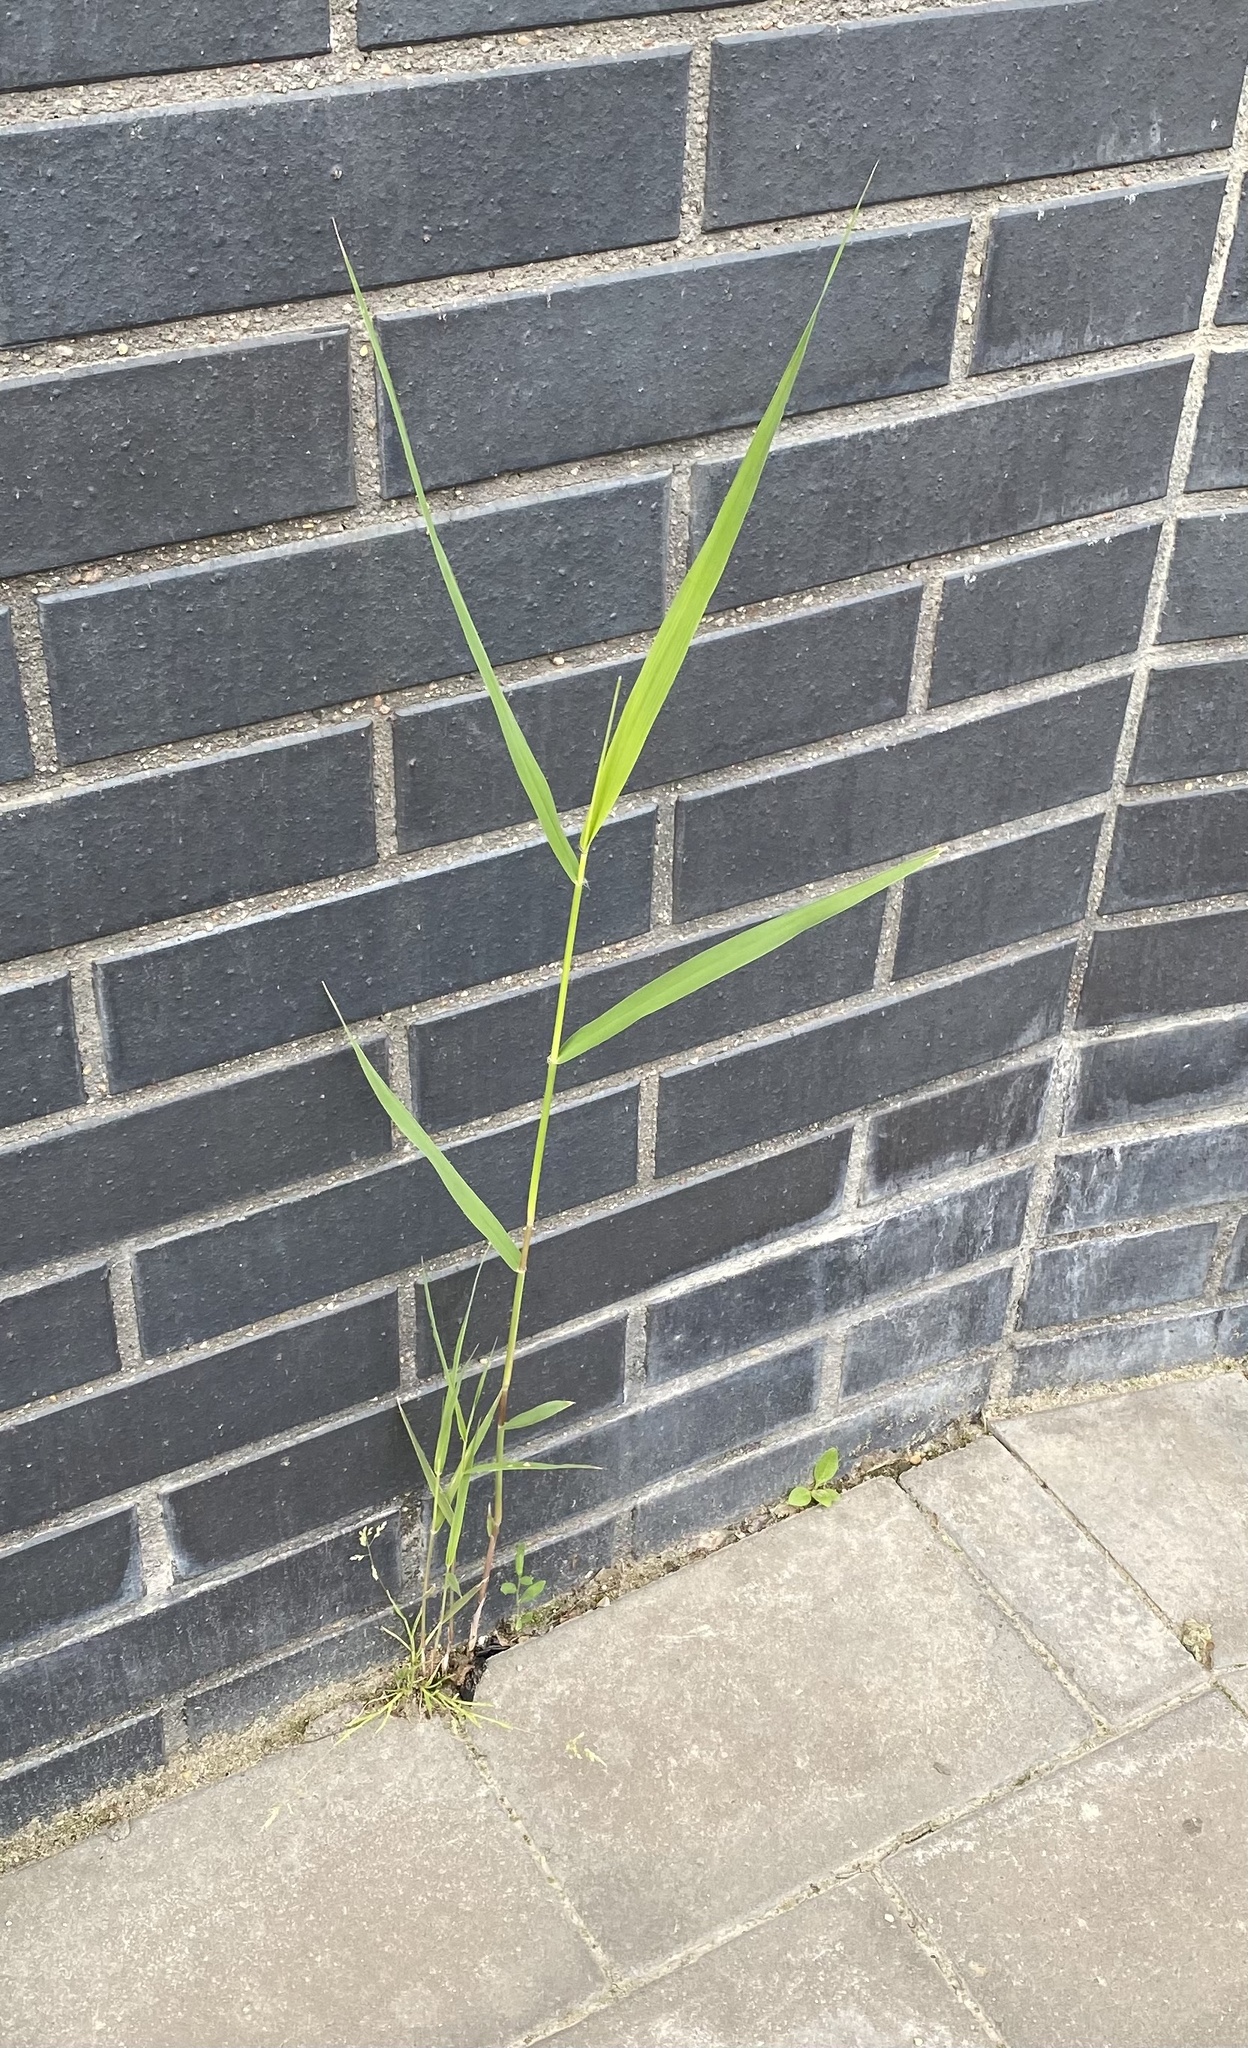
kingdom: Plantae
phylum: Tracheophyta
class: Liliopsida
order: Poales
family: Poaceae
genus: Phragmites
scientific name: Phragmites australis
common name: Common reed
